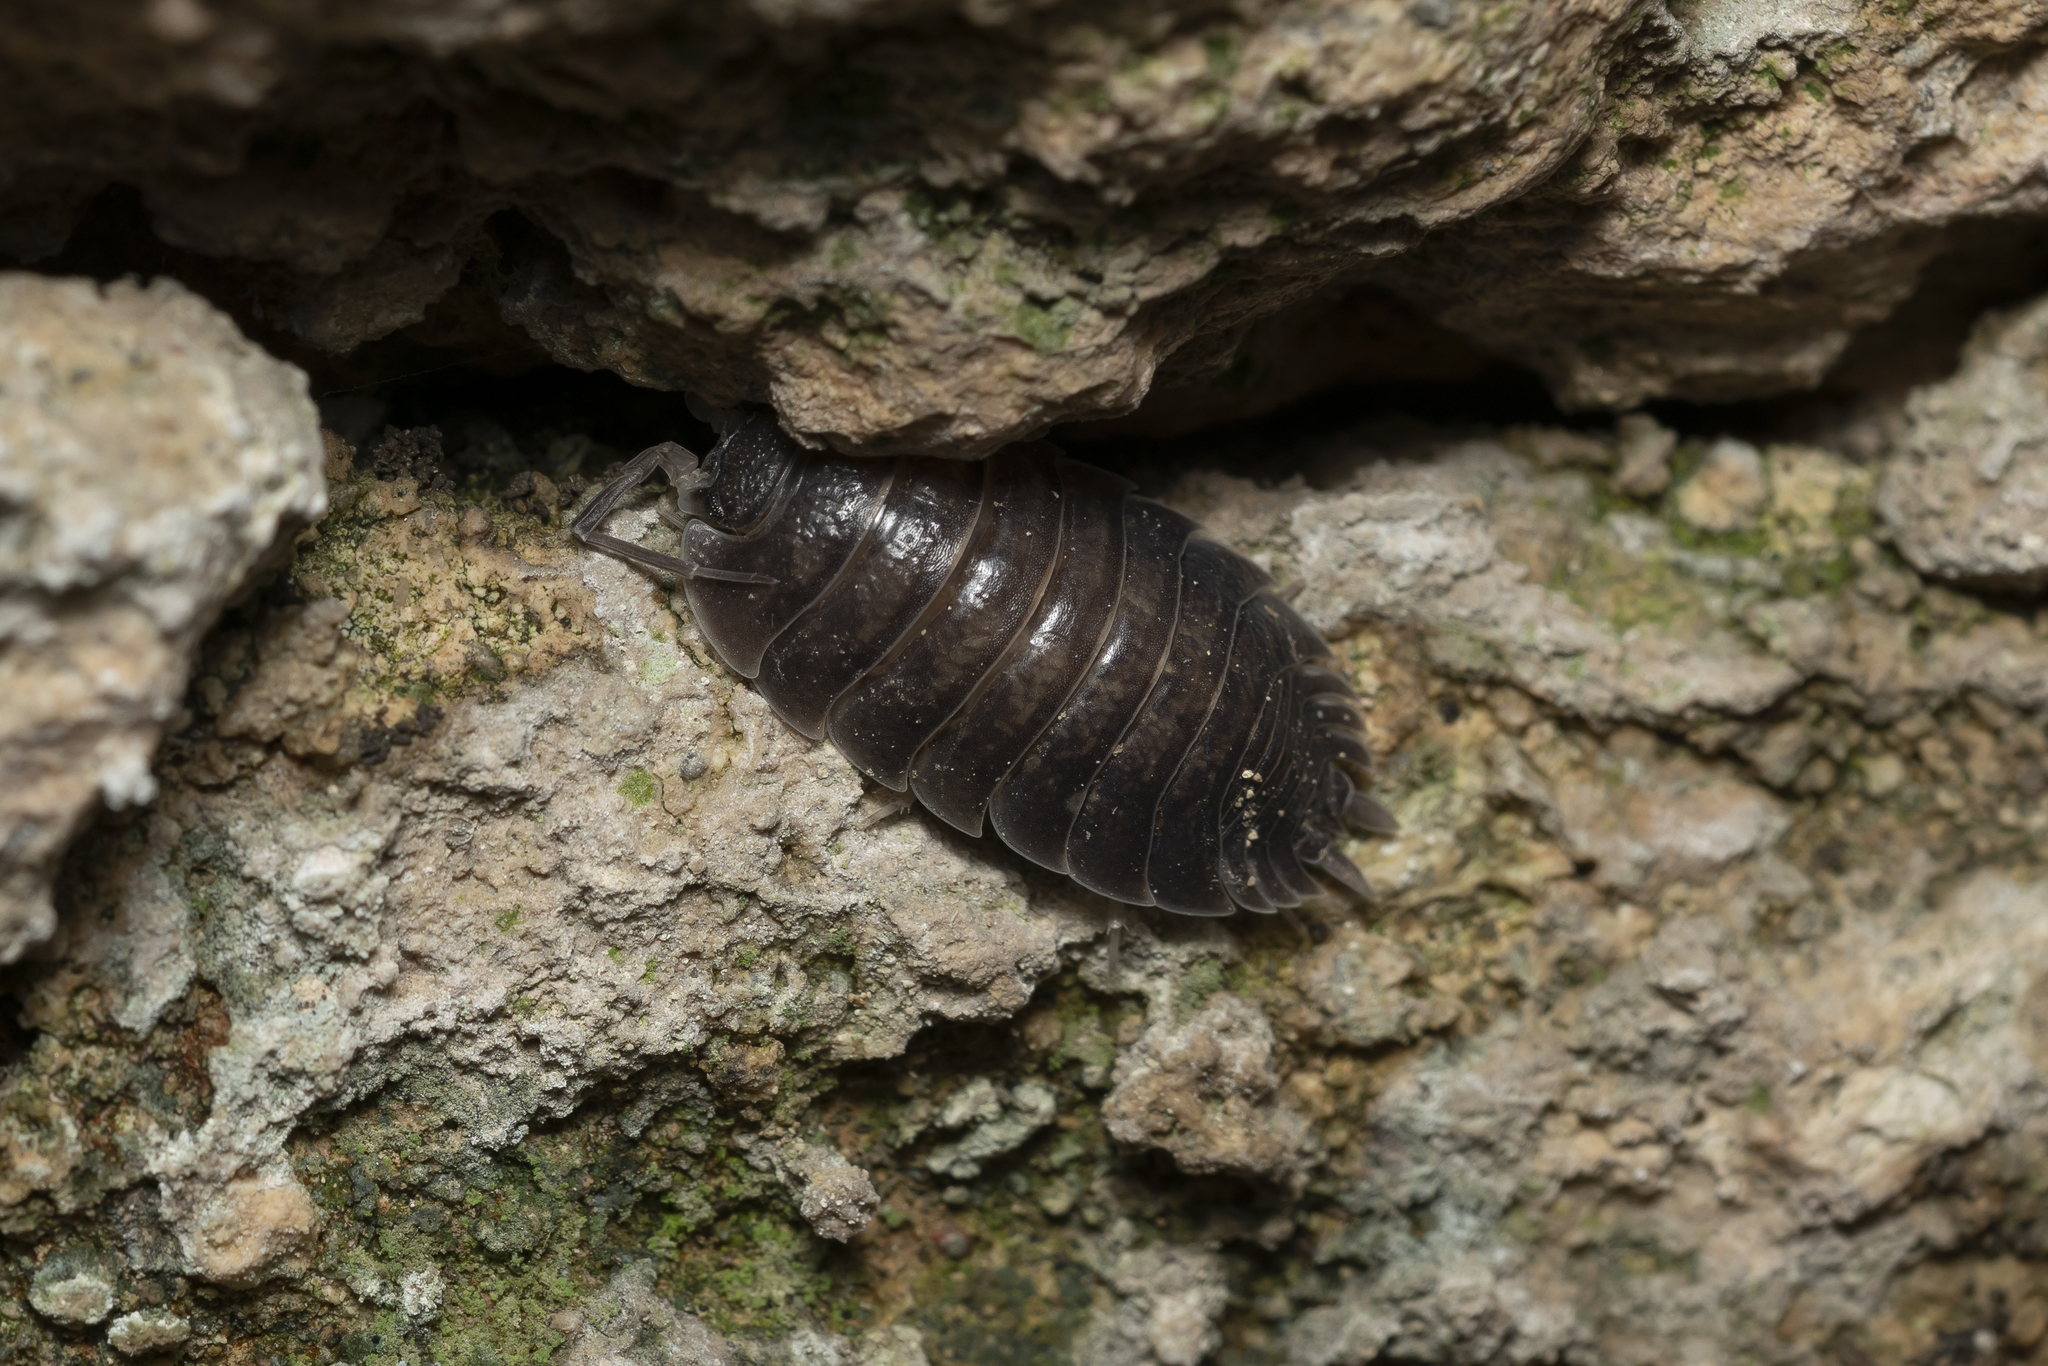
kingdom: Animalia
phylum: Arthropoda
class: Malacostraca
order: Isopoda
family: Porcellionidae
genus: Porcellio
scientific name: Porcellio obsoletus
